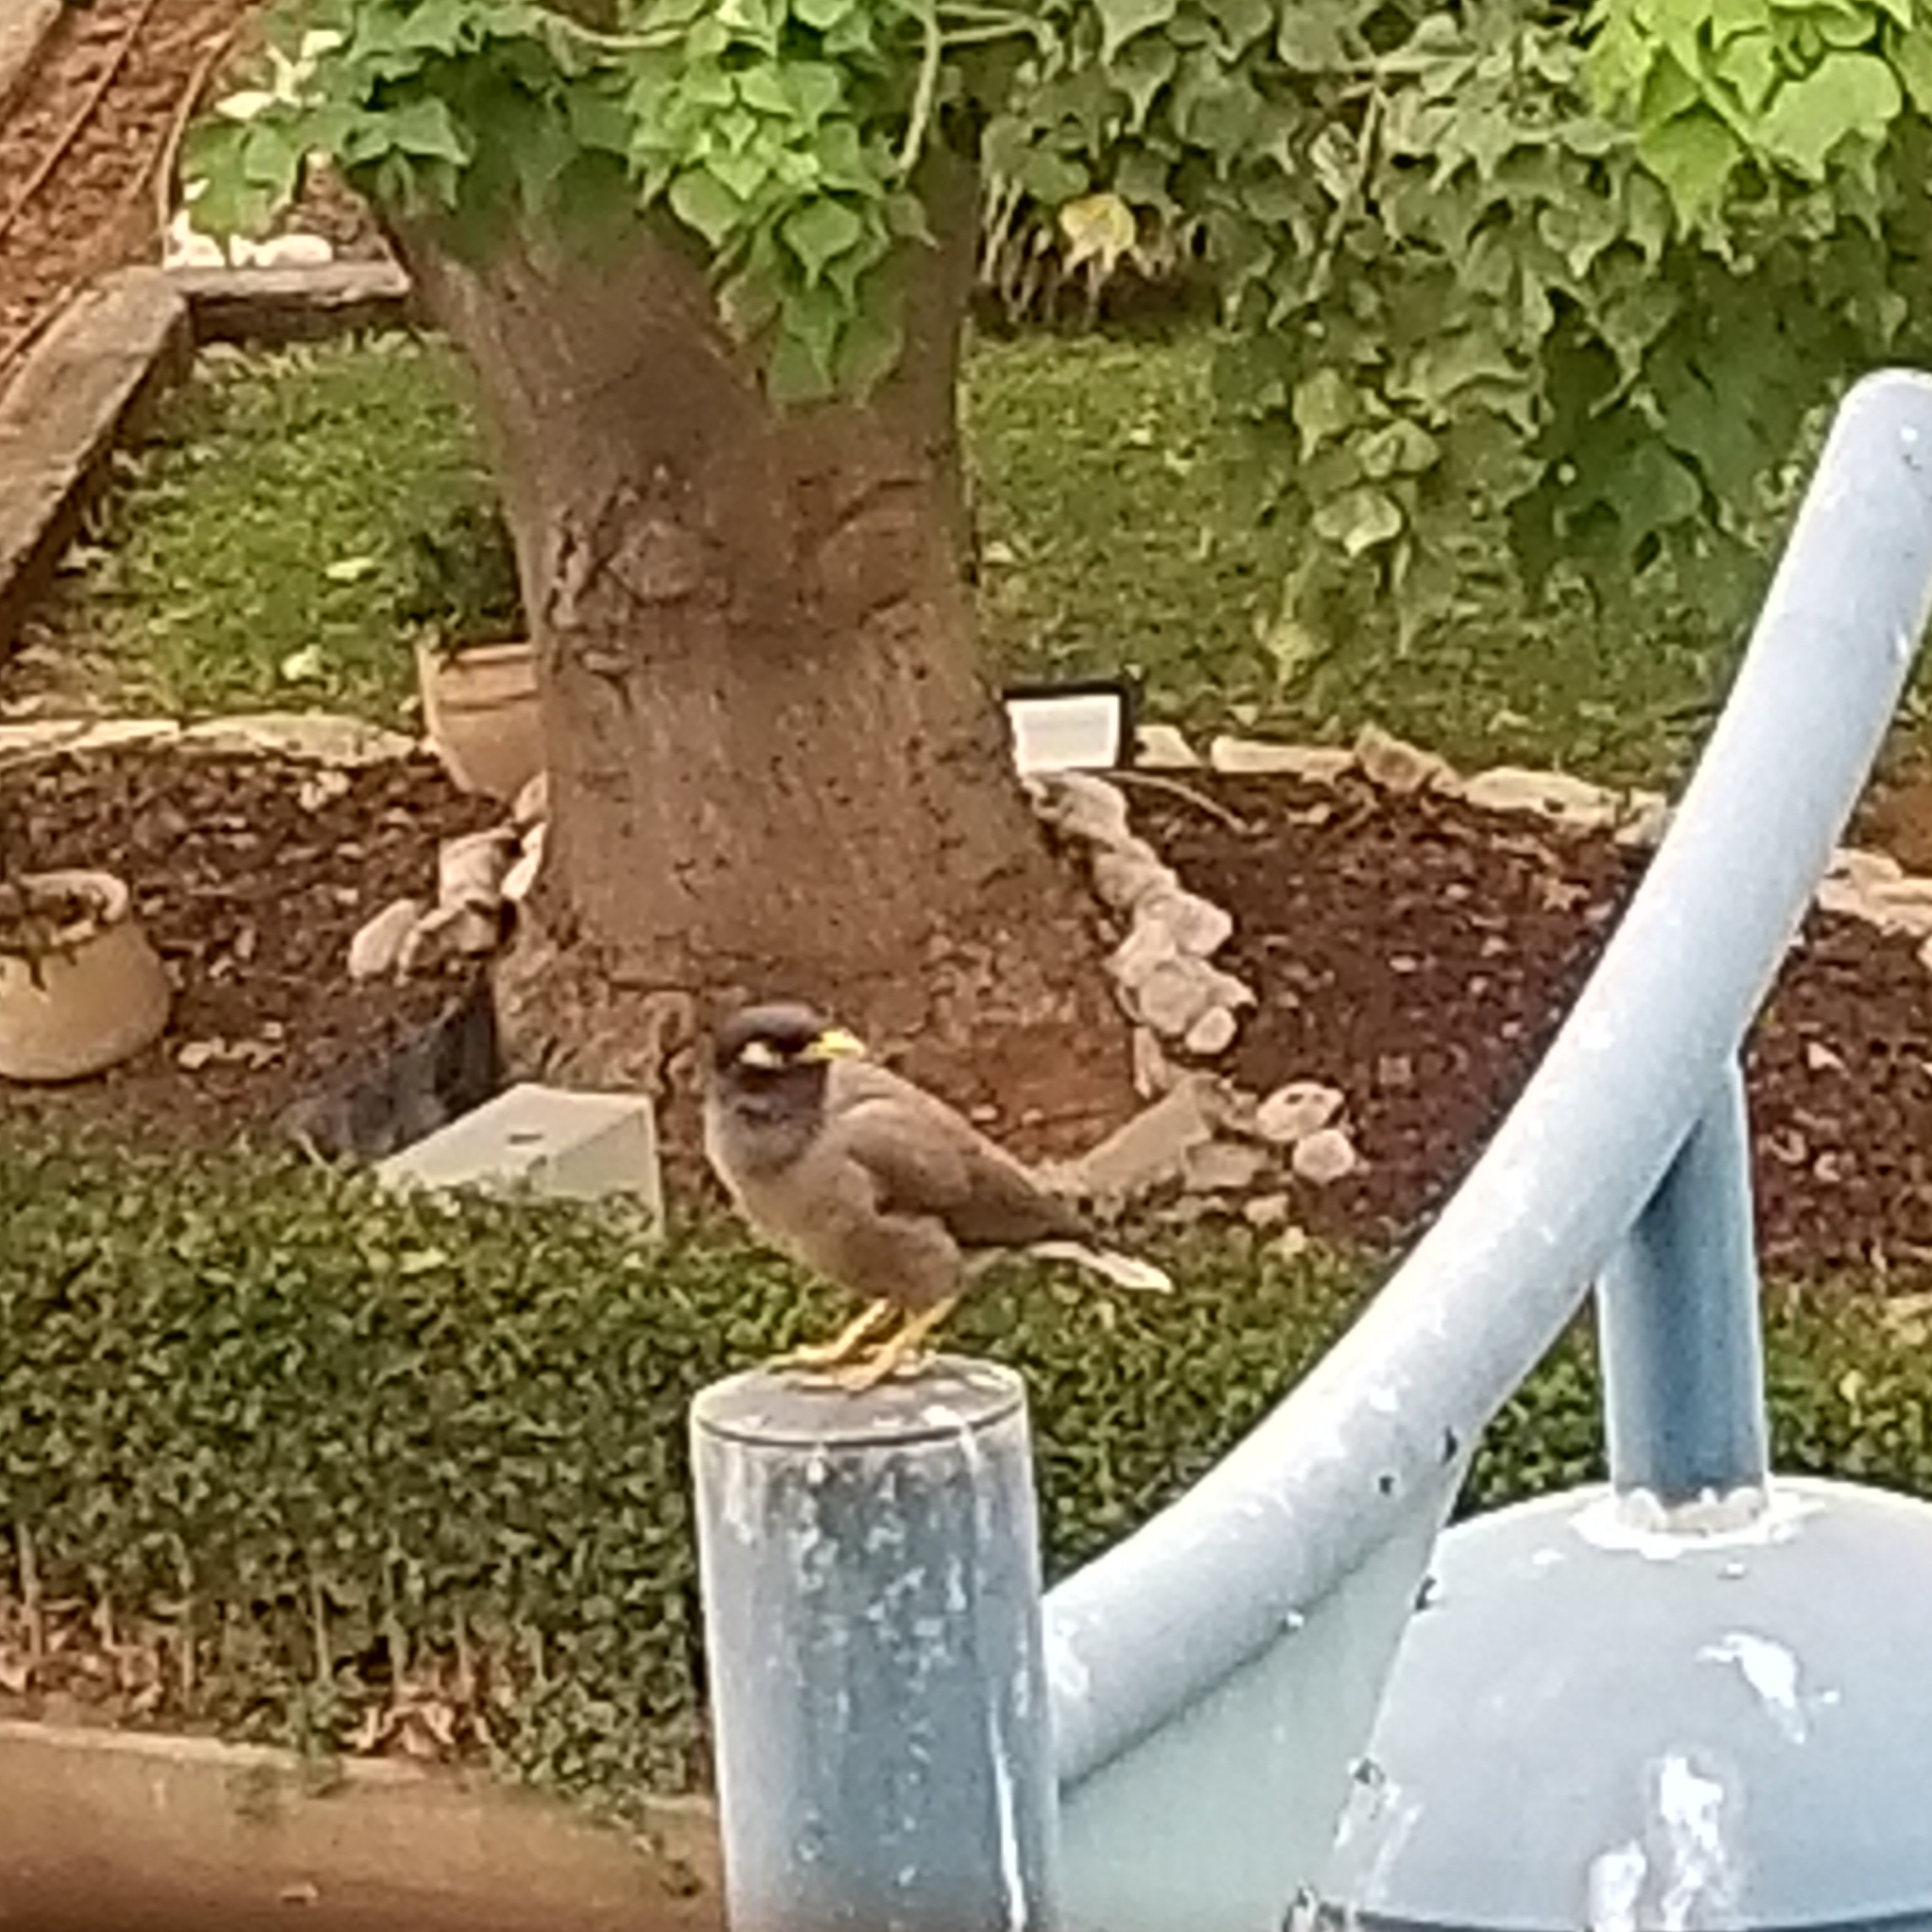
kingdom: Animalia
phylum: Chordata
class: Aves
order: Passeriformes
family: Sturnidae
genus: Acridotheres
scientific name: Acridotheres tristis
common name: Common myna
